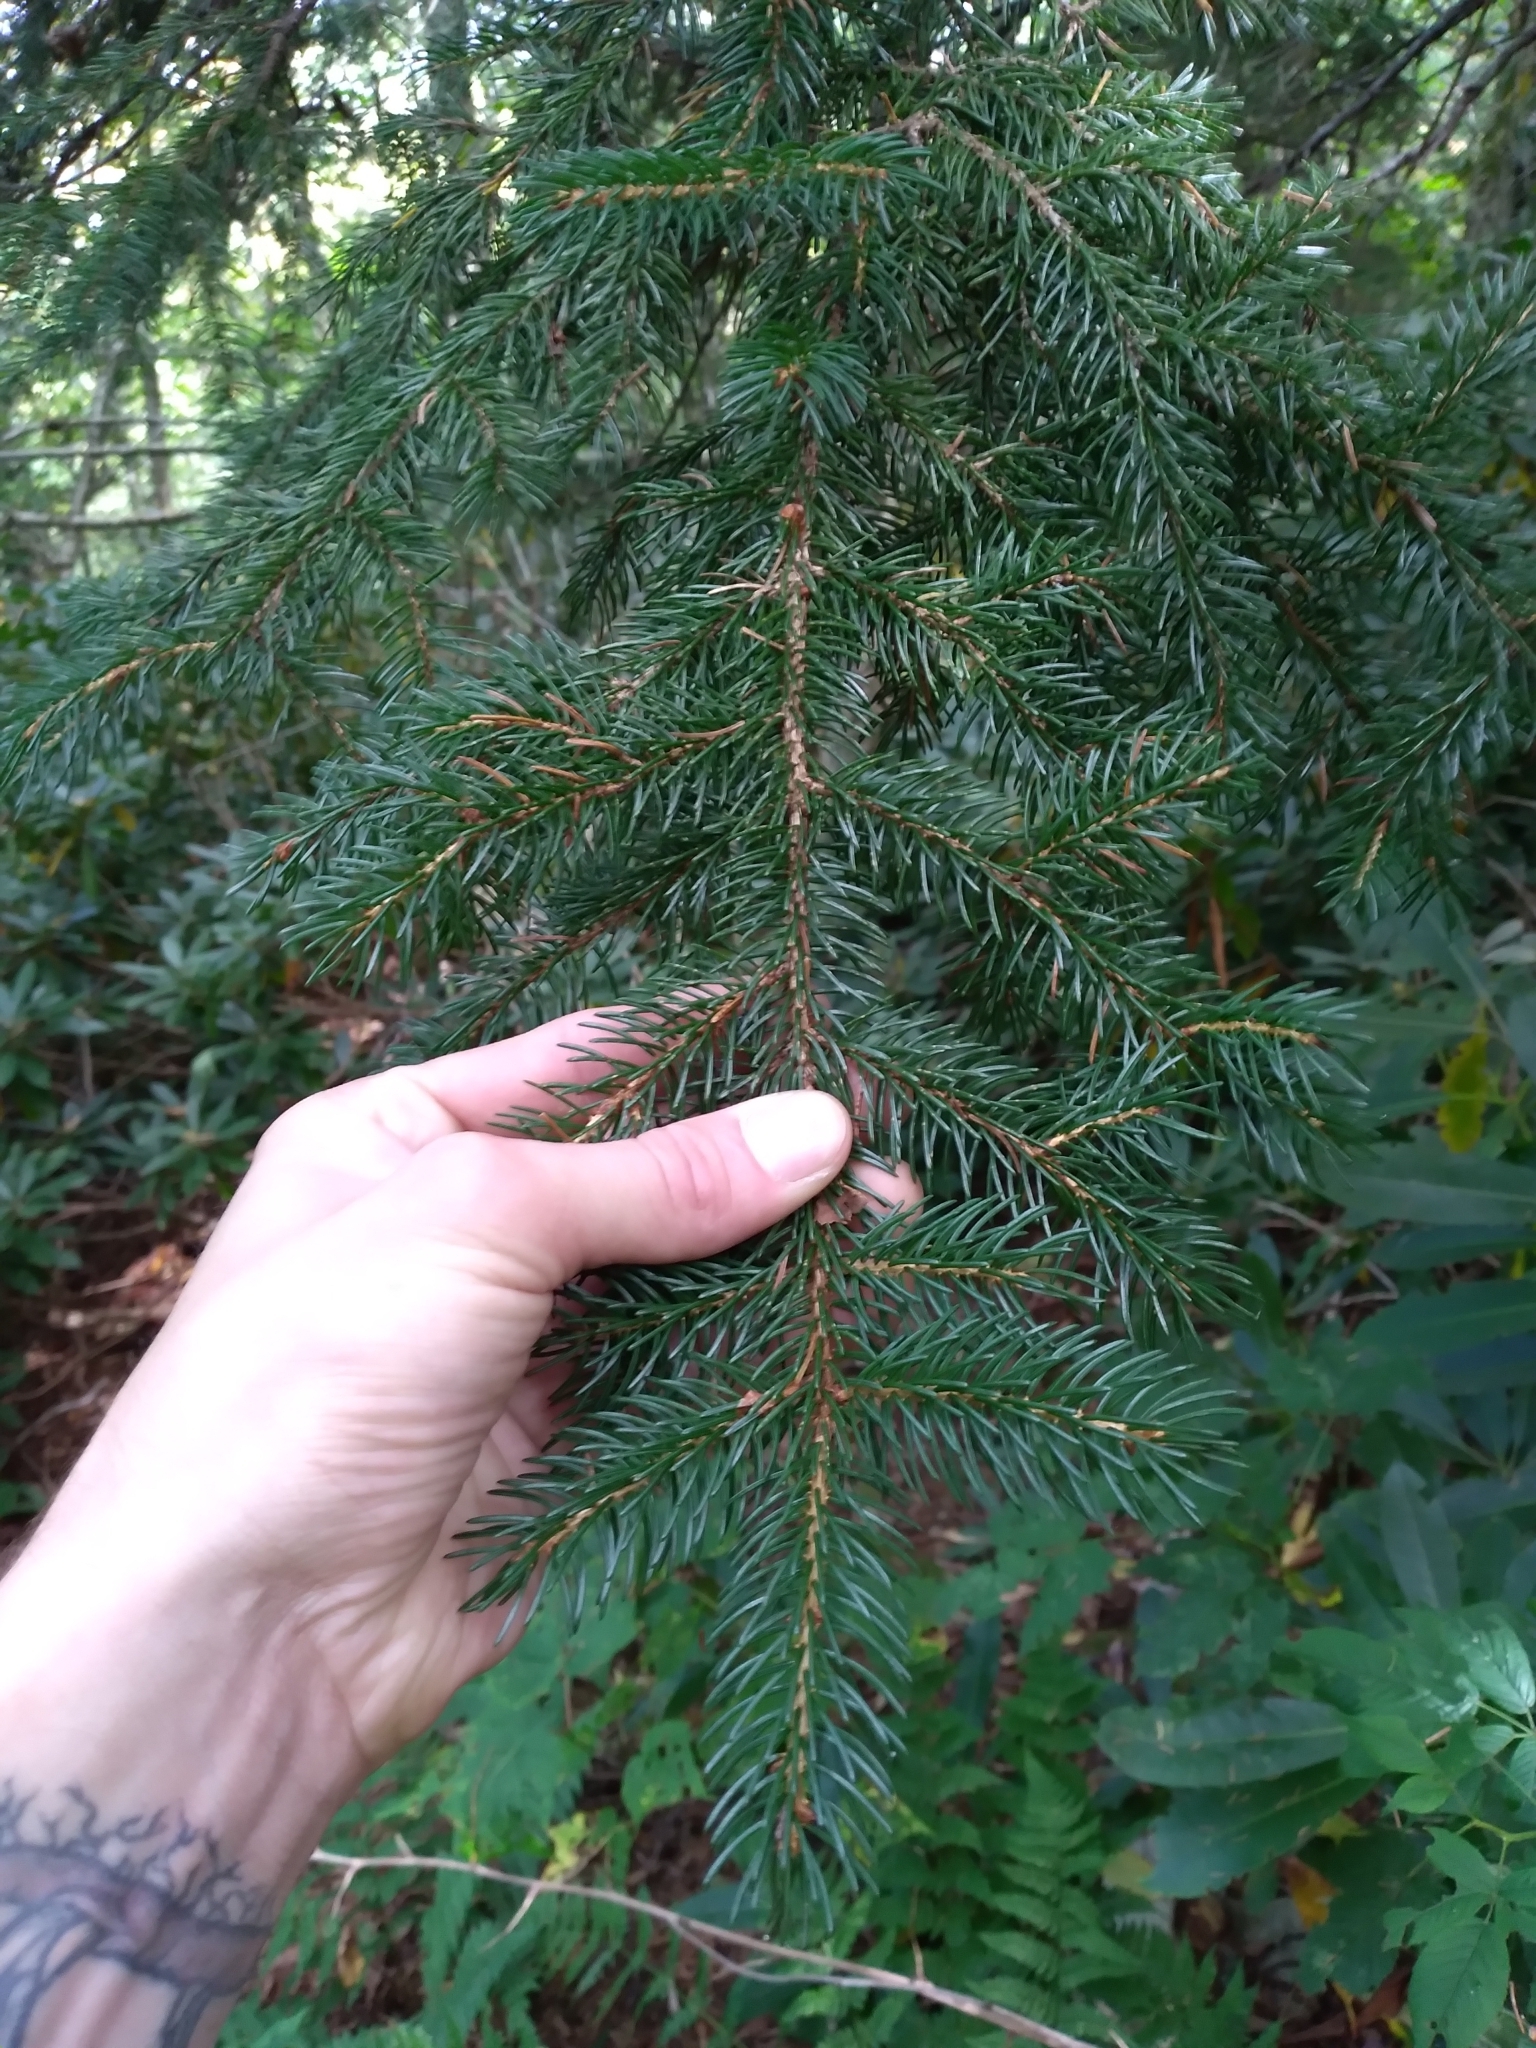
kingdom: Plantae
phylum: Tracheophyta
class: Pinopsida
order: Pinales
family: Pinaceae
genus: Picea
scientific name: Picea rubens
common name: Red spruce
